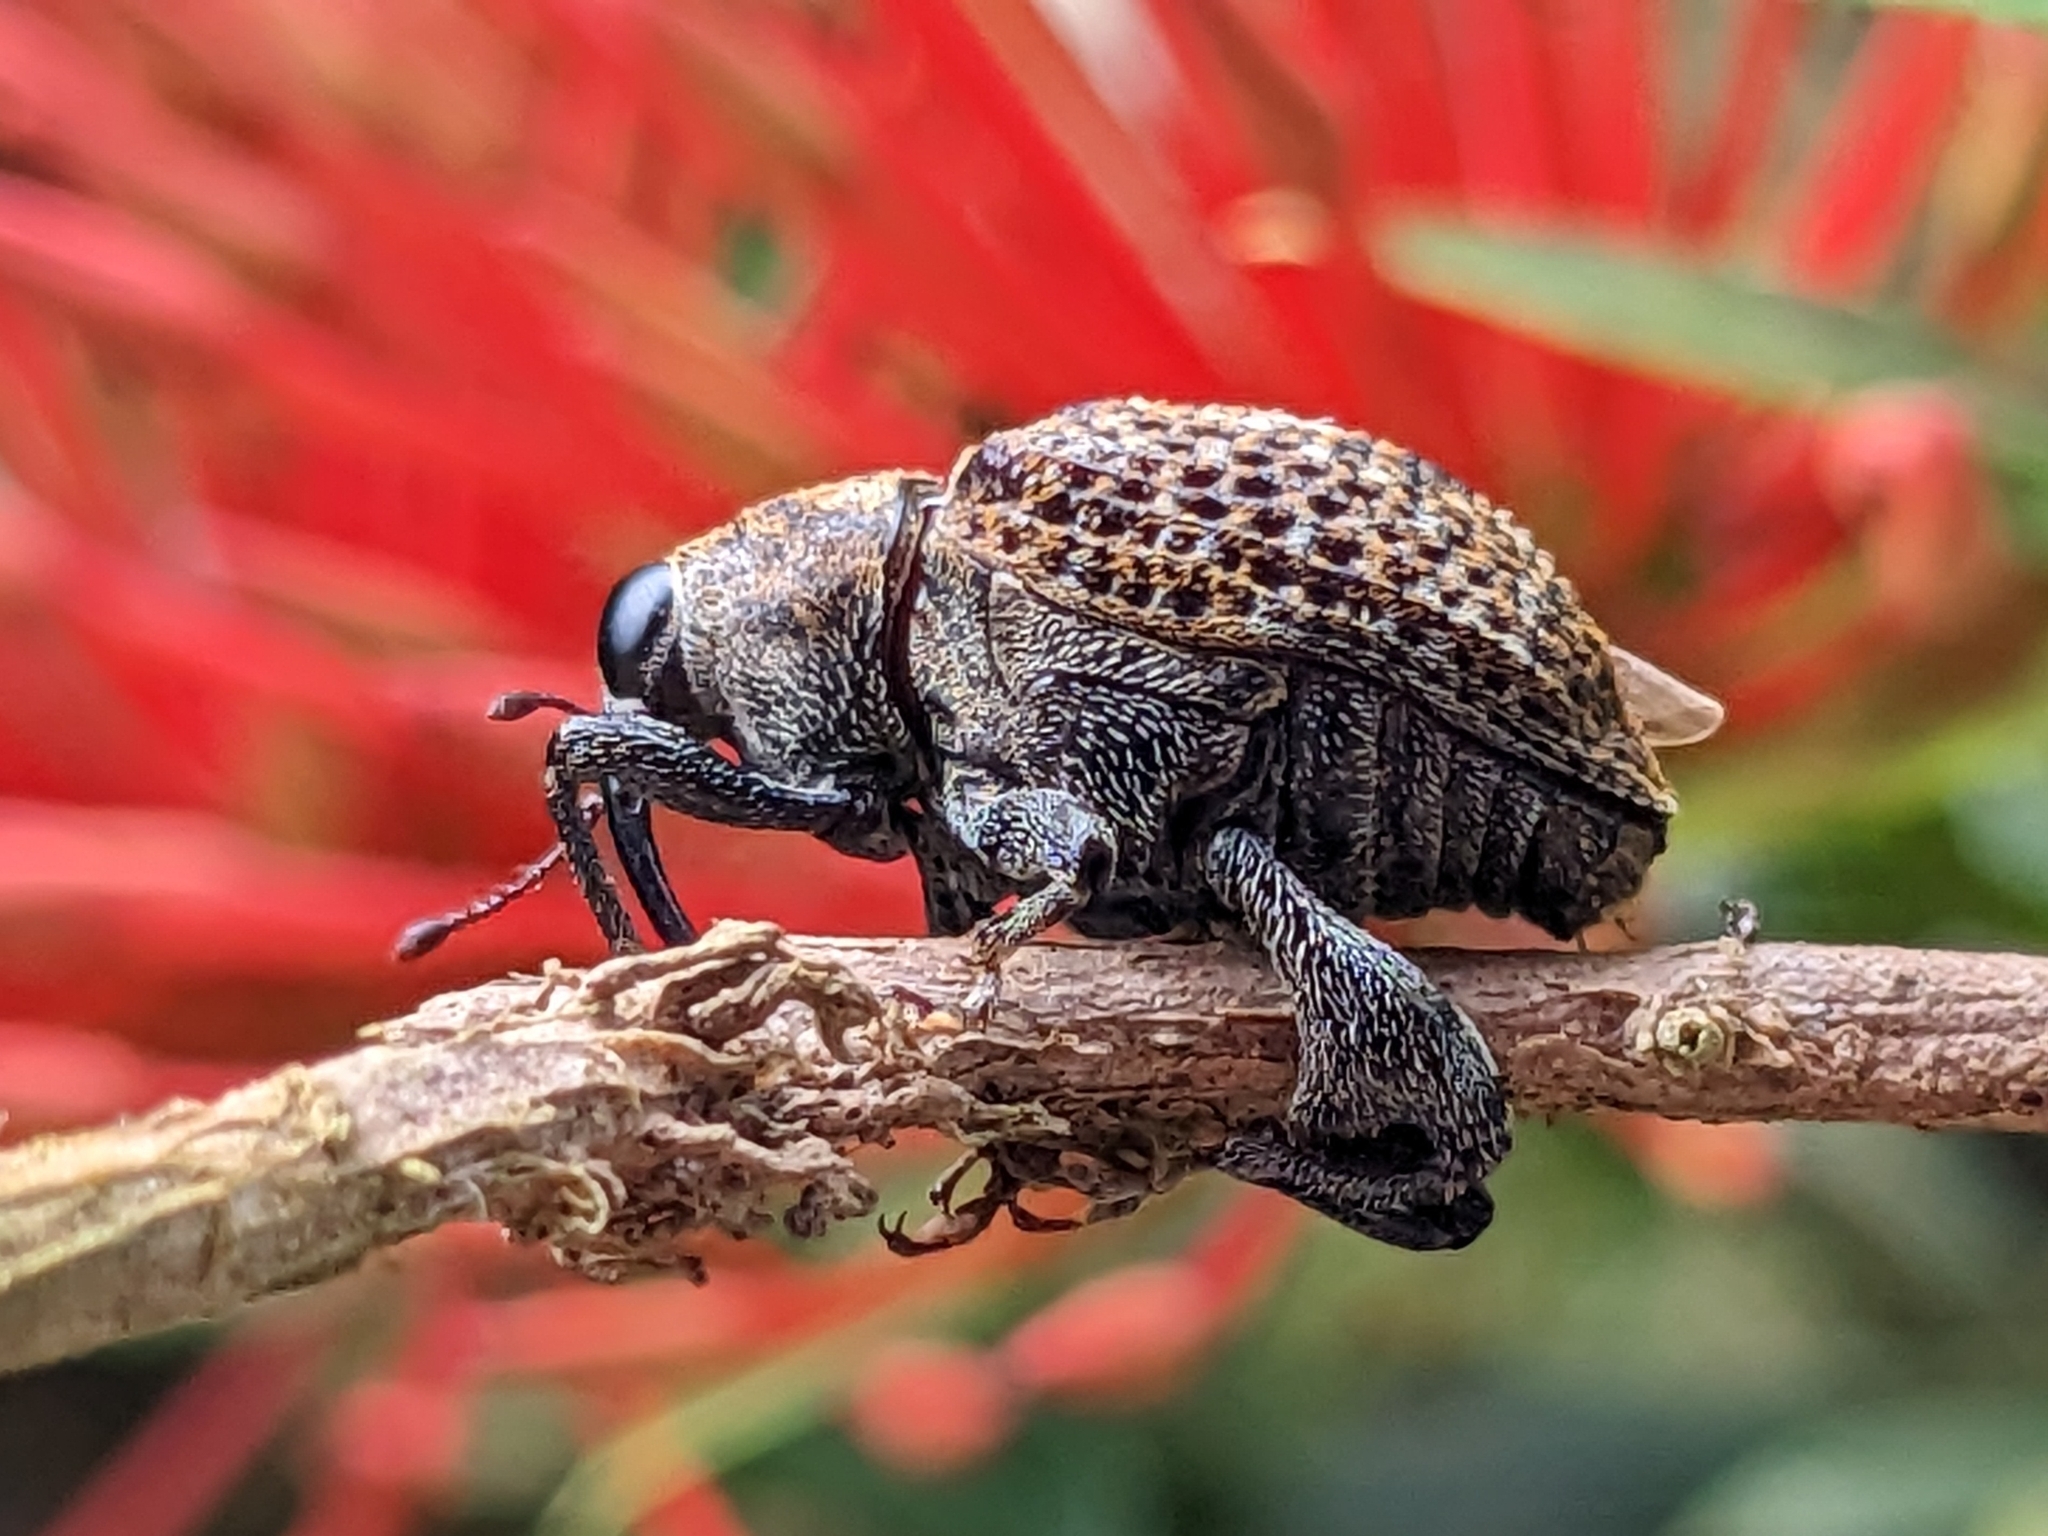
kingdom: Animalia
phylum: Arthropoda
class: Insecta
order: Coleoptera
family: Curculionidae
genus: Pseudopiazurus
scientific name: Pseudopiazurus centraliamericanus
